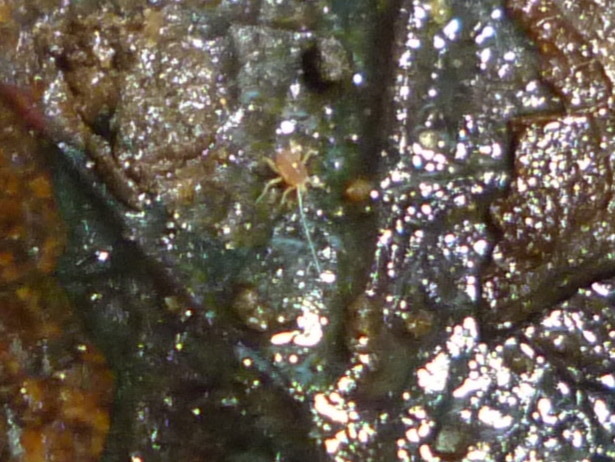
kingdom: Animalia
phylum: Arthropoda
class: Arachnida
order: Trombidiformes
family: Eupodidae
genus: Linopodes
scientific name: Linopodes
